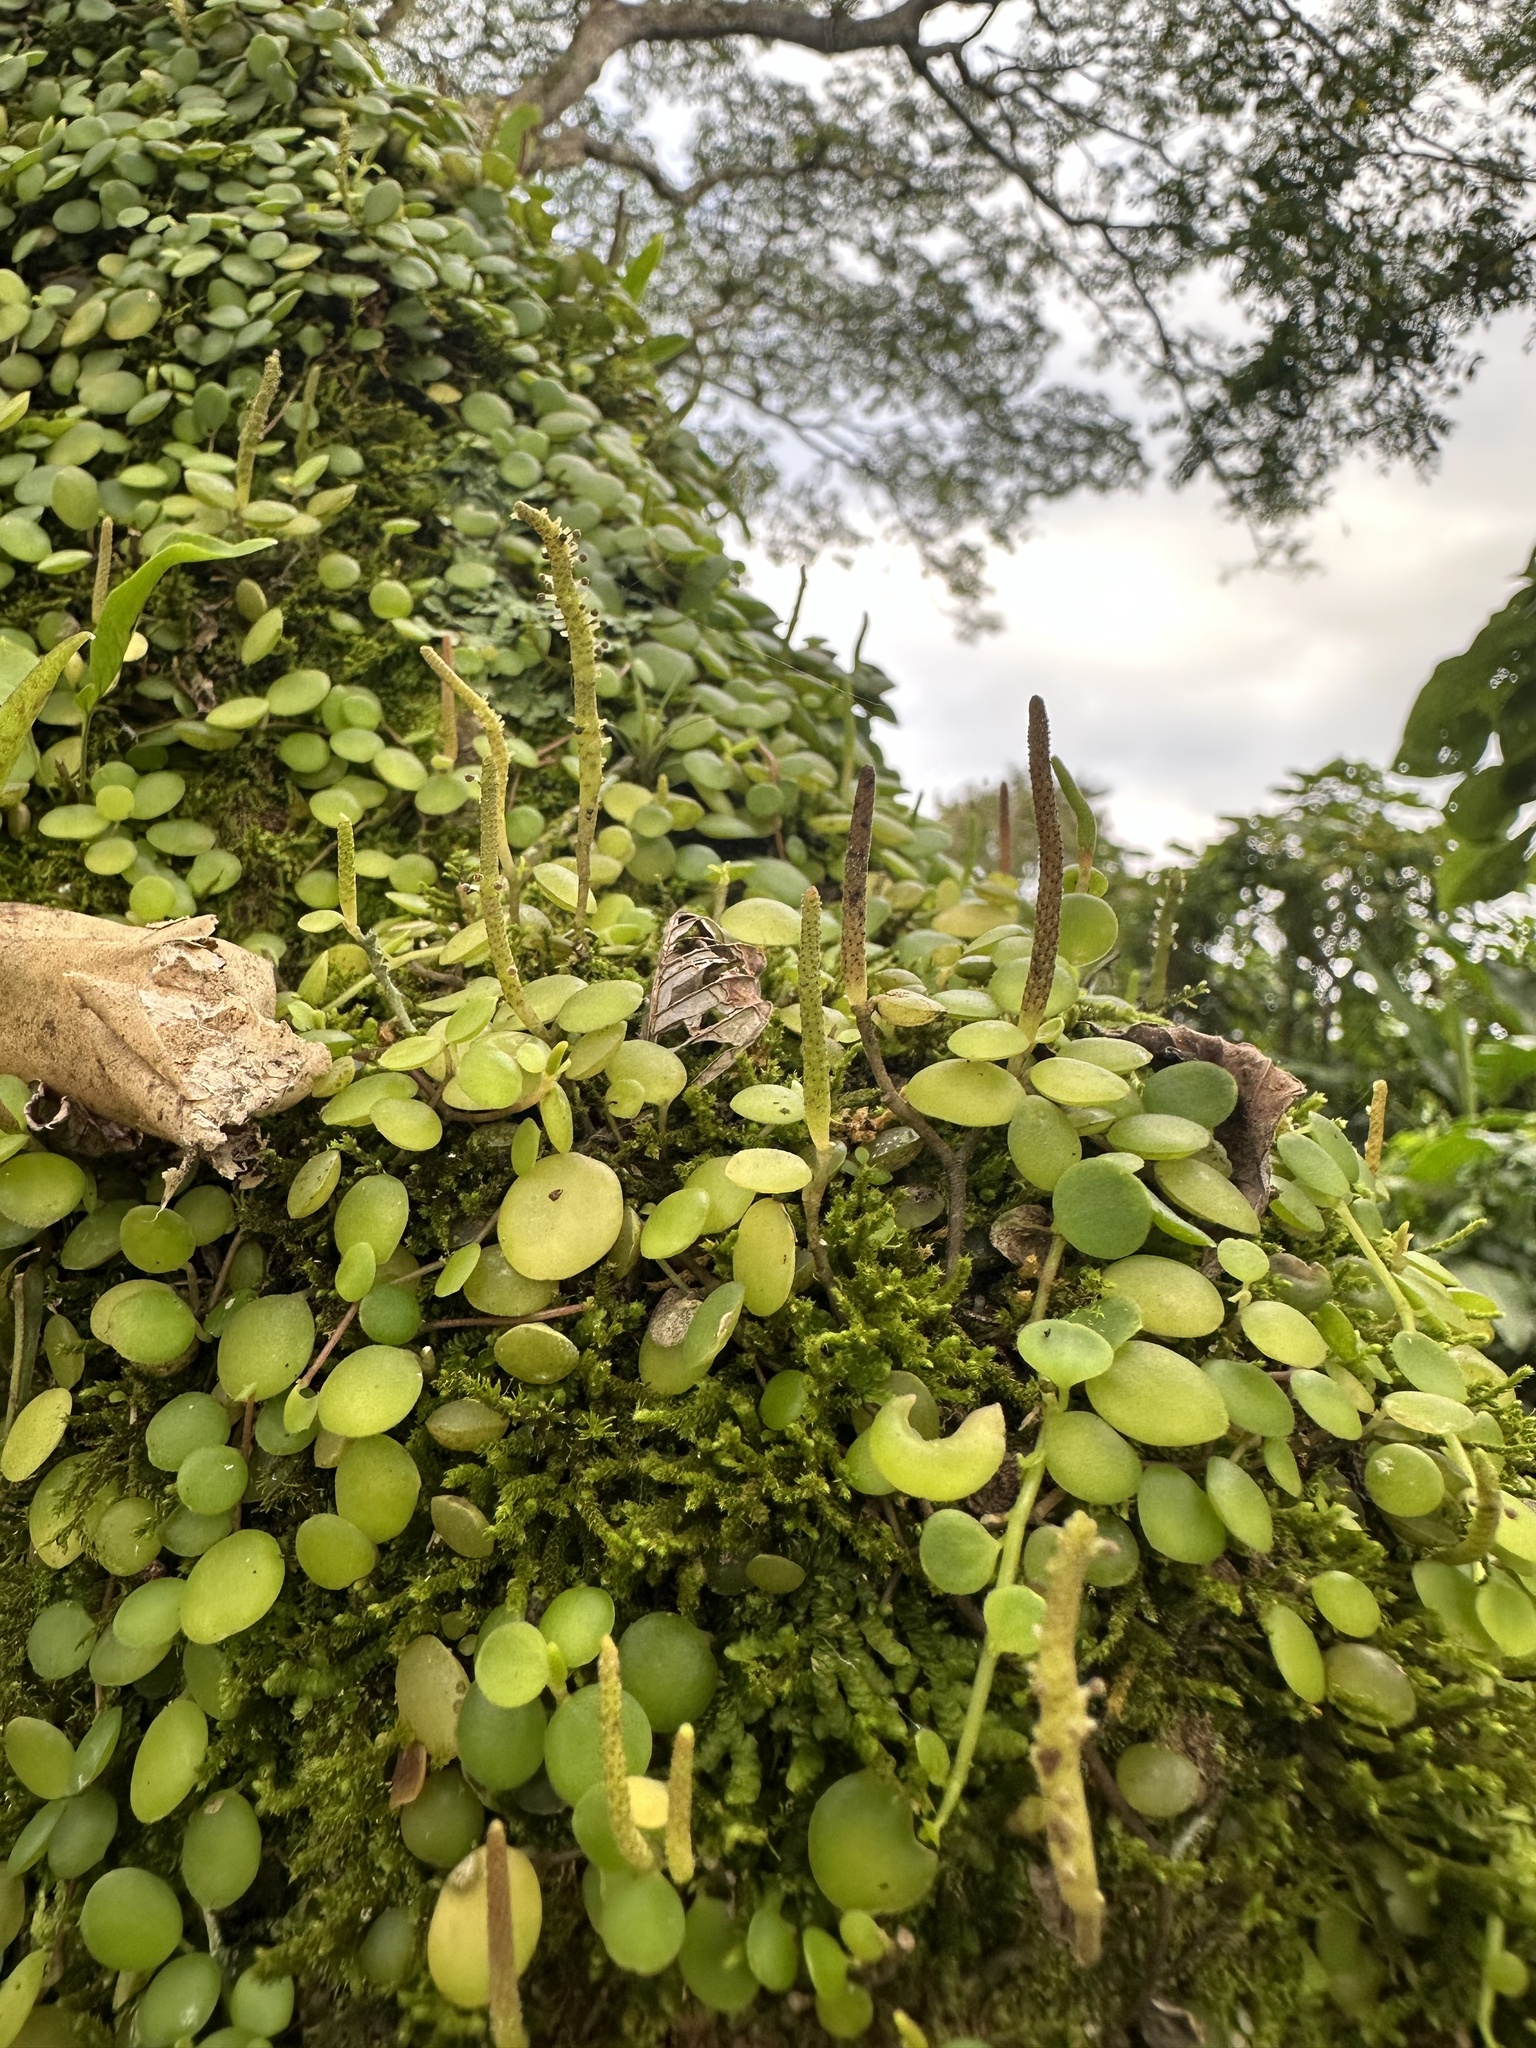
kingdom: Plantae
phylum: Tracheophyta
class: Magnoliopsida
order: Piperales
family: Piperaceae
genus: Peperomia
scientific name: Peperomia rotundifolia
